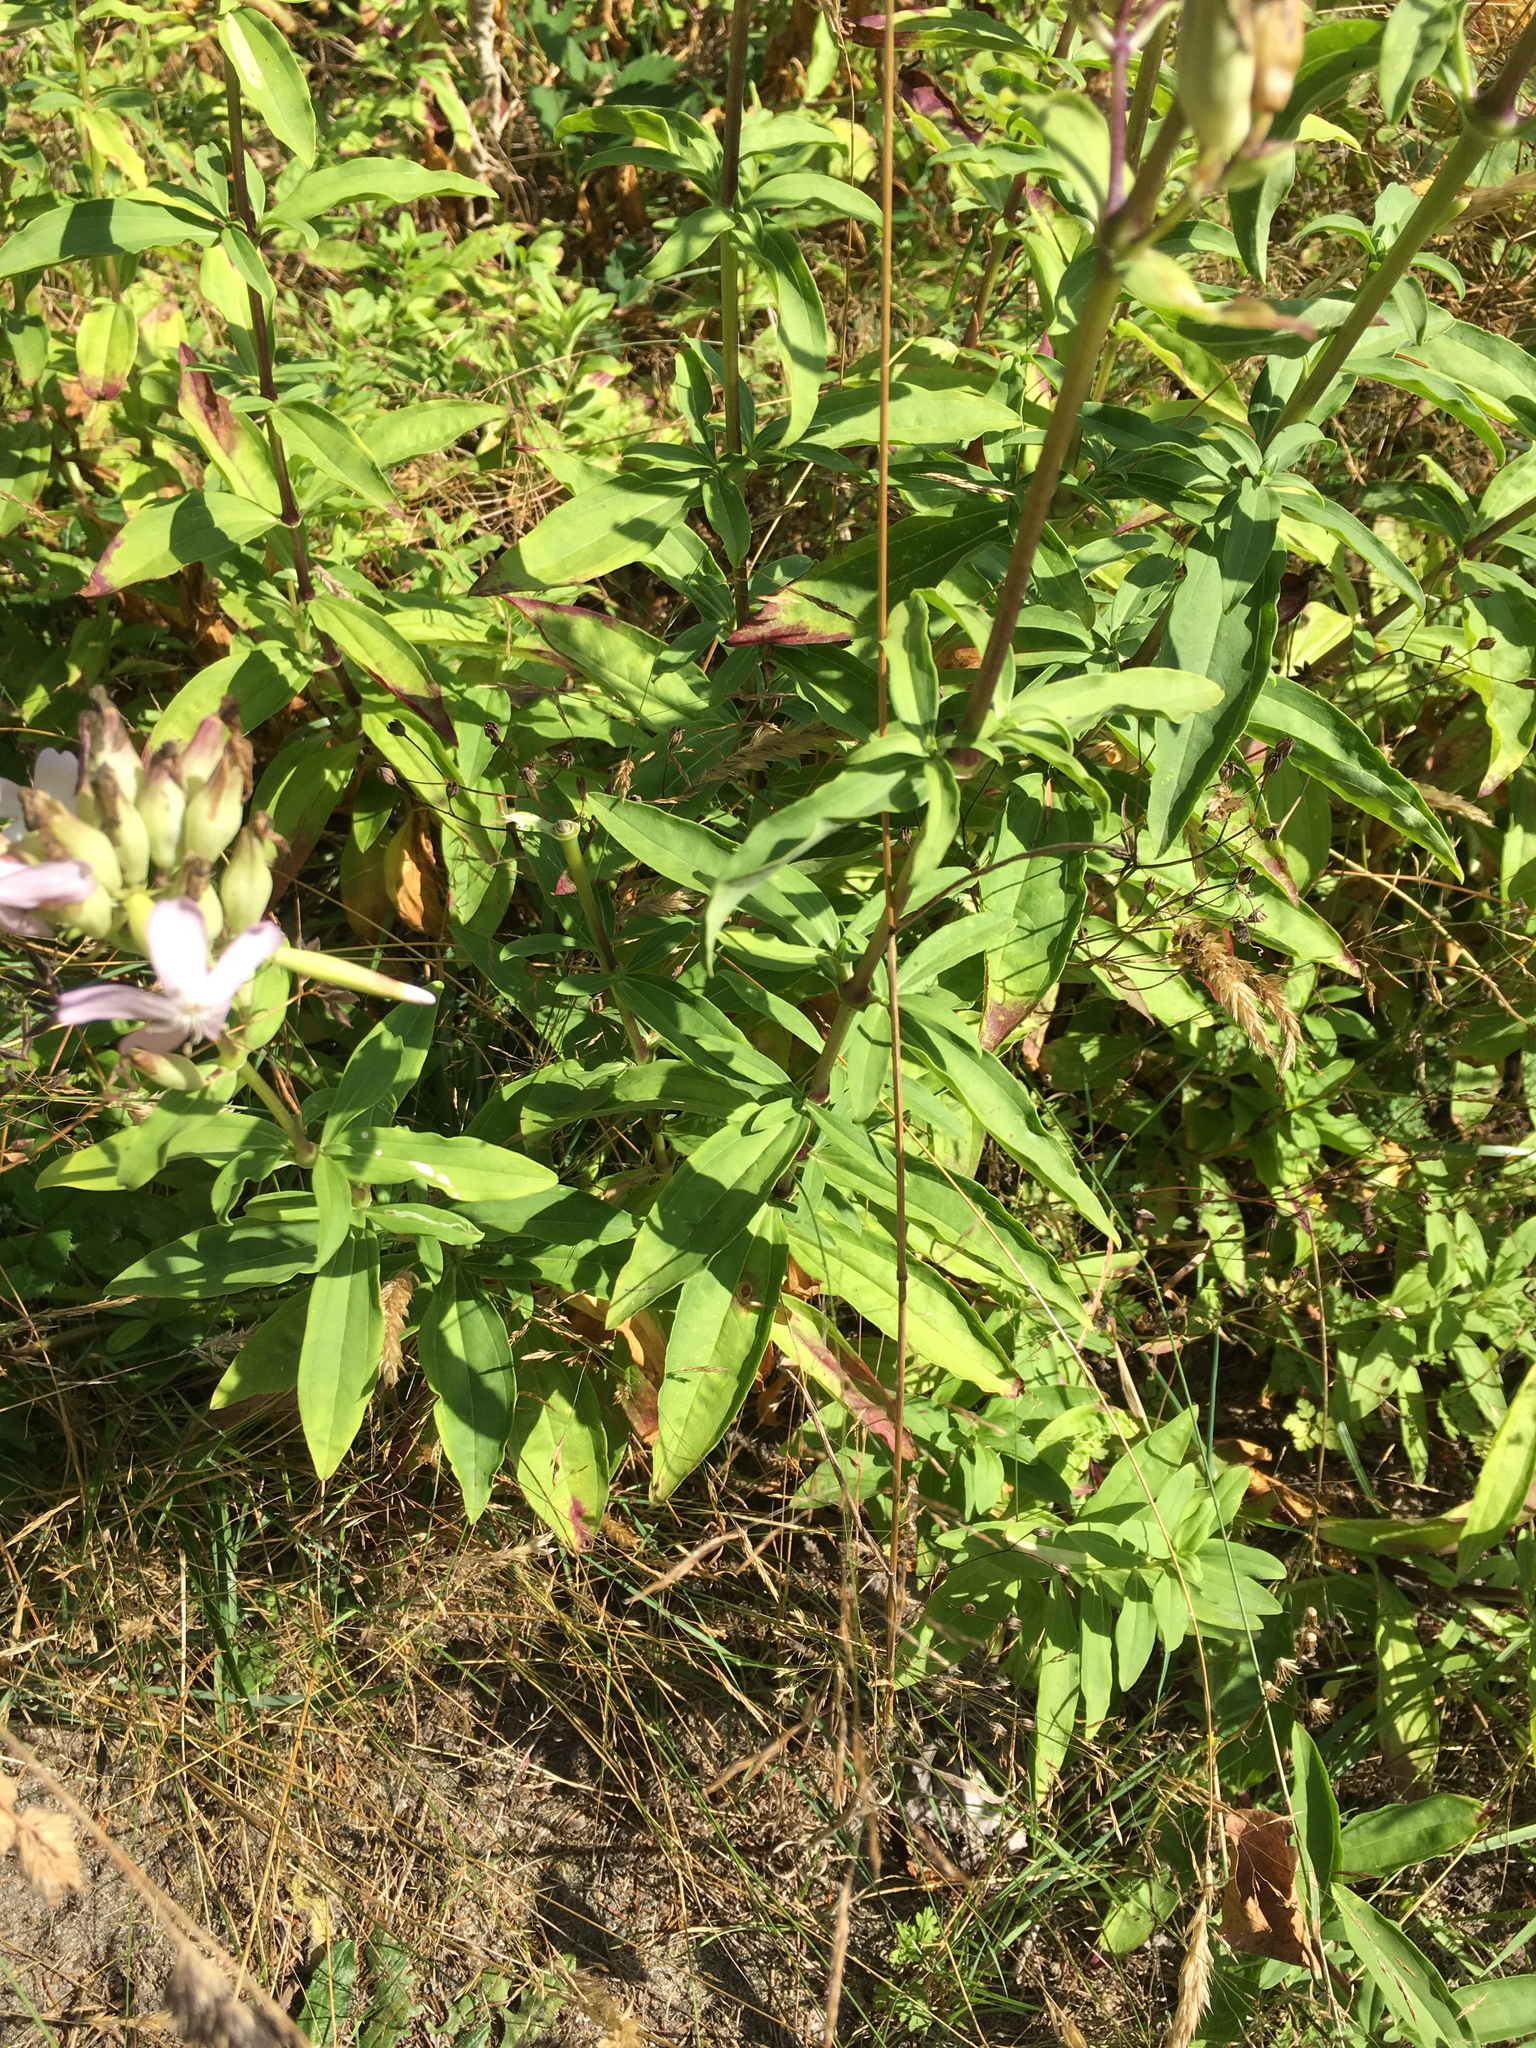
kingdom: Plantae
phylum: Tracheophyta
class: Magnoliopsida
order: Caryophyllales
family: Caryophyllaceae
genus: Saponaria
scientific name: Saponaria officinalis
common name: Soapwort
